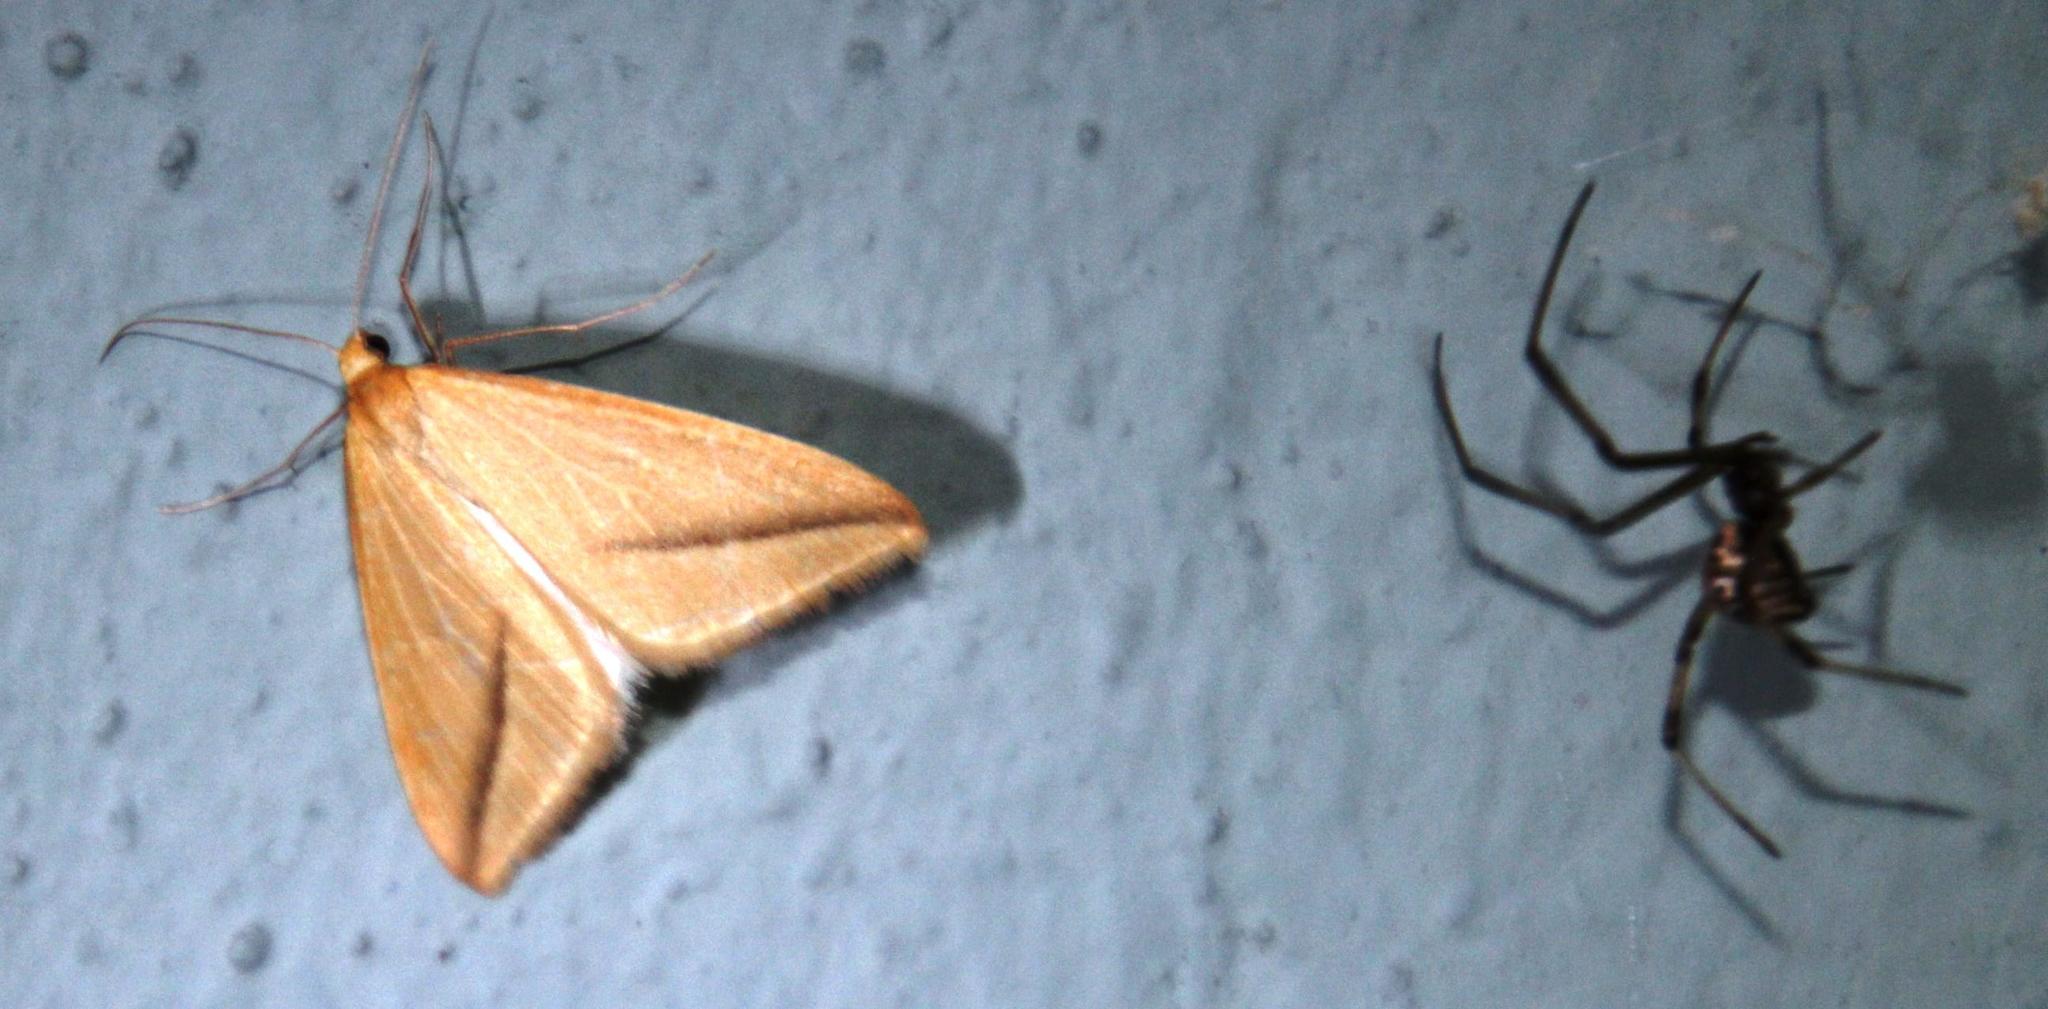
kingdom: Animalia
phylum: Arthropoda
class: Insecta
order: Lepidoptera
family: Geometridae
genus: Rhodometra
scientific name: Rhodometra sacraria
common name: Vestal
